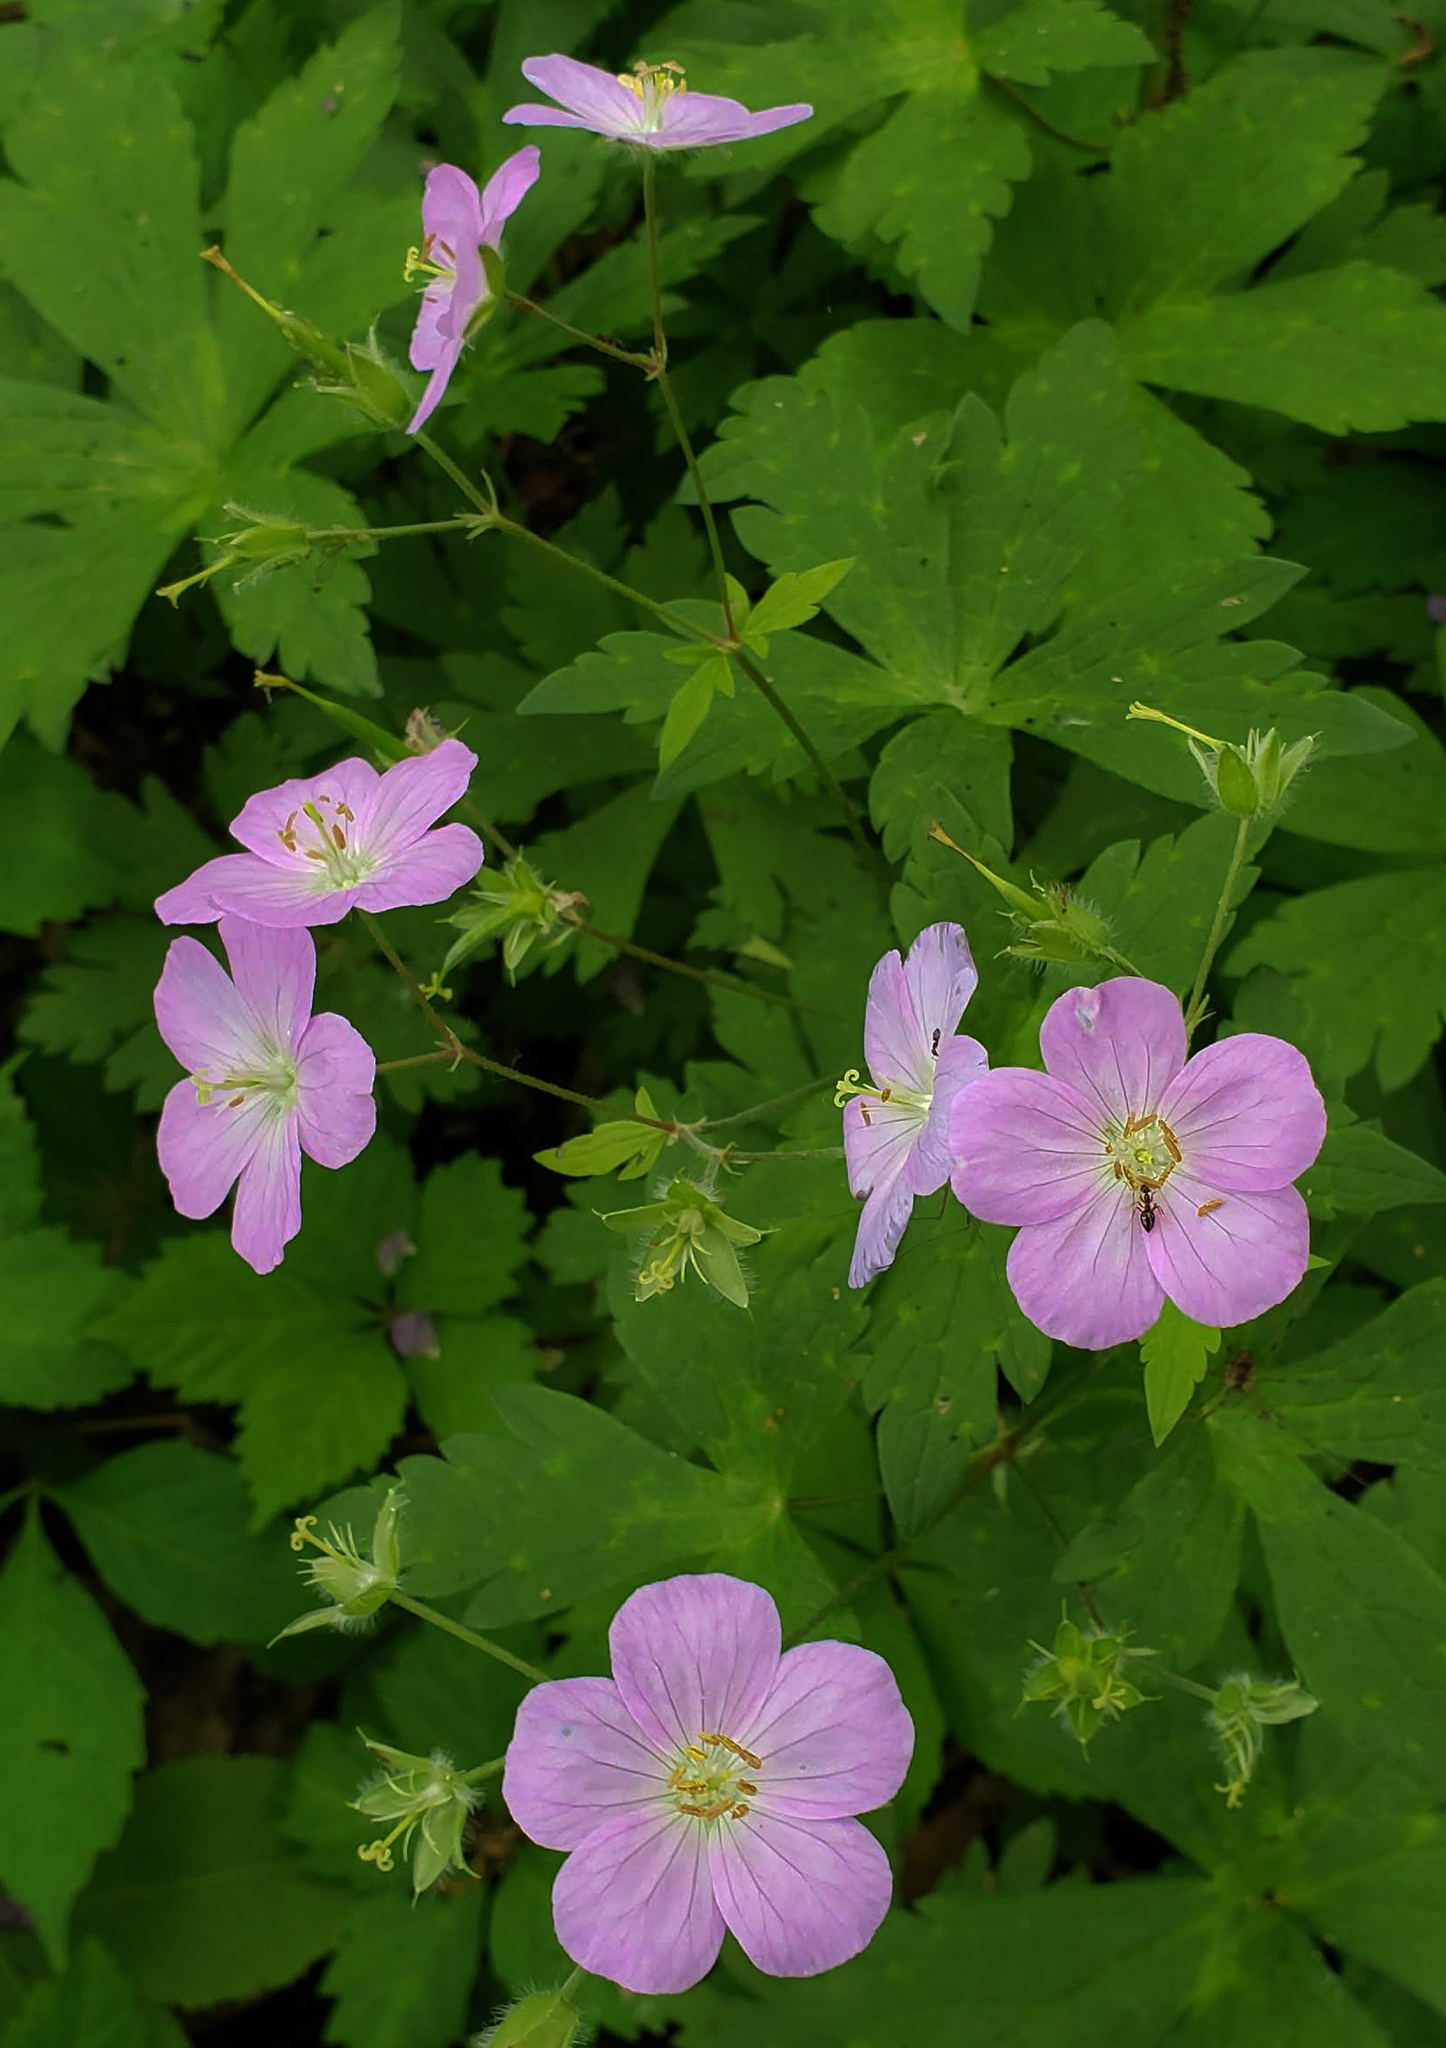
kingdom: Plantae
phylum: Tracheophyta
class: Magnoliopsida
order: Geraniales
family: Geraniaceae
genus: Geranium
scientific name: Geranium maculatum
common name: Spotted geranium
